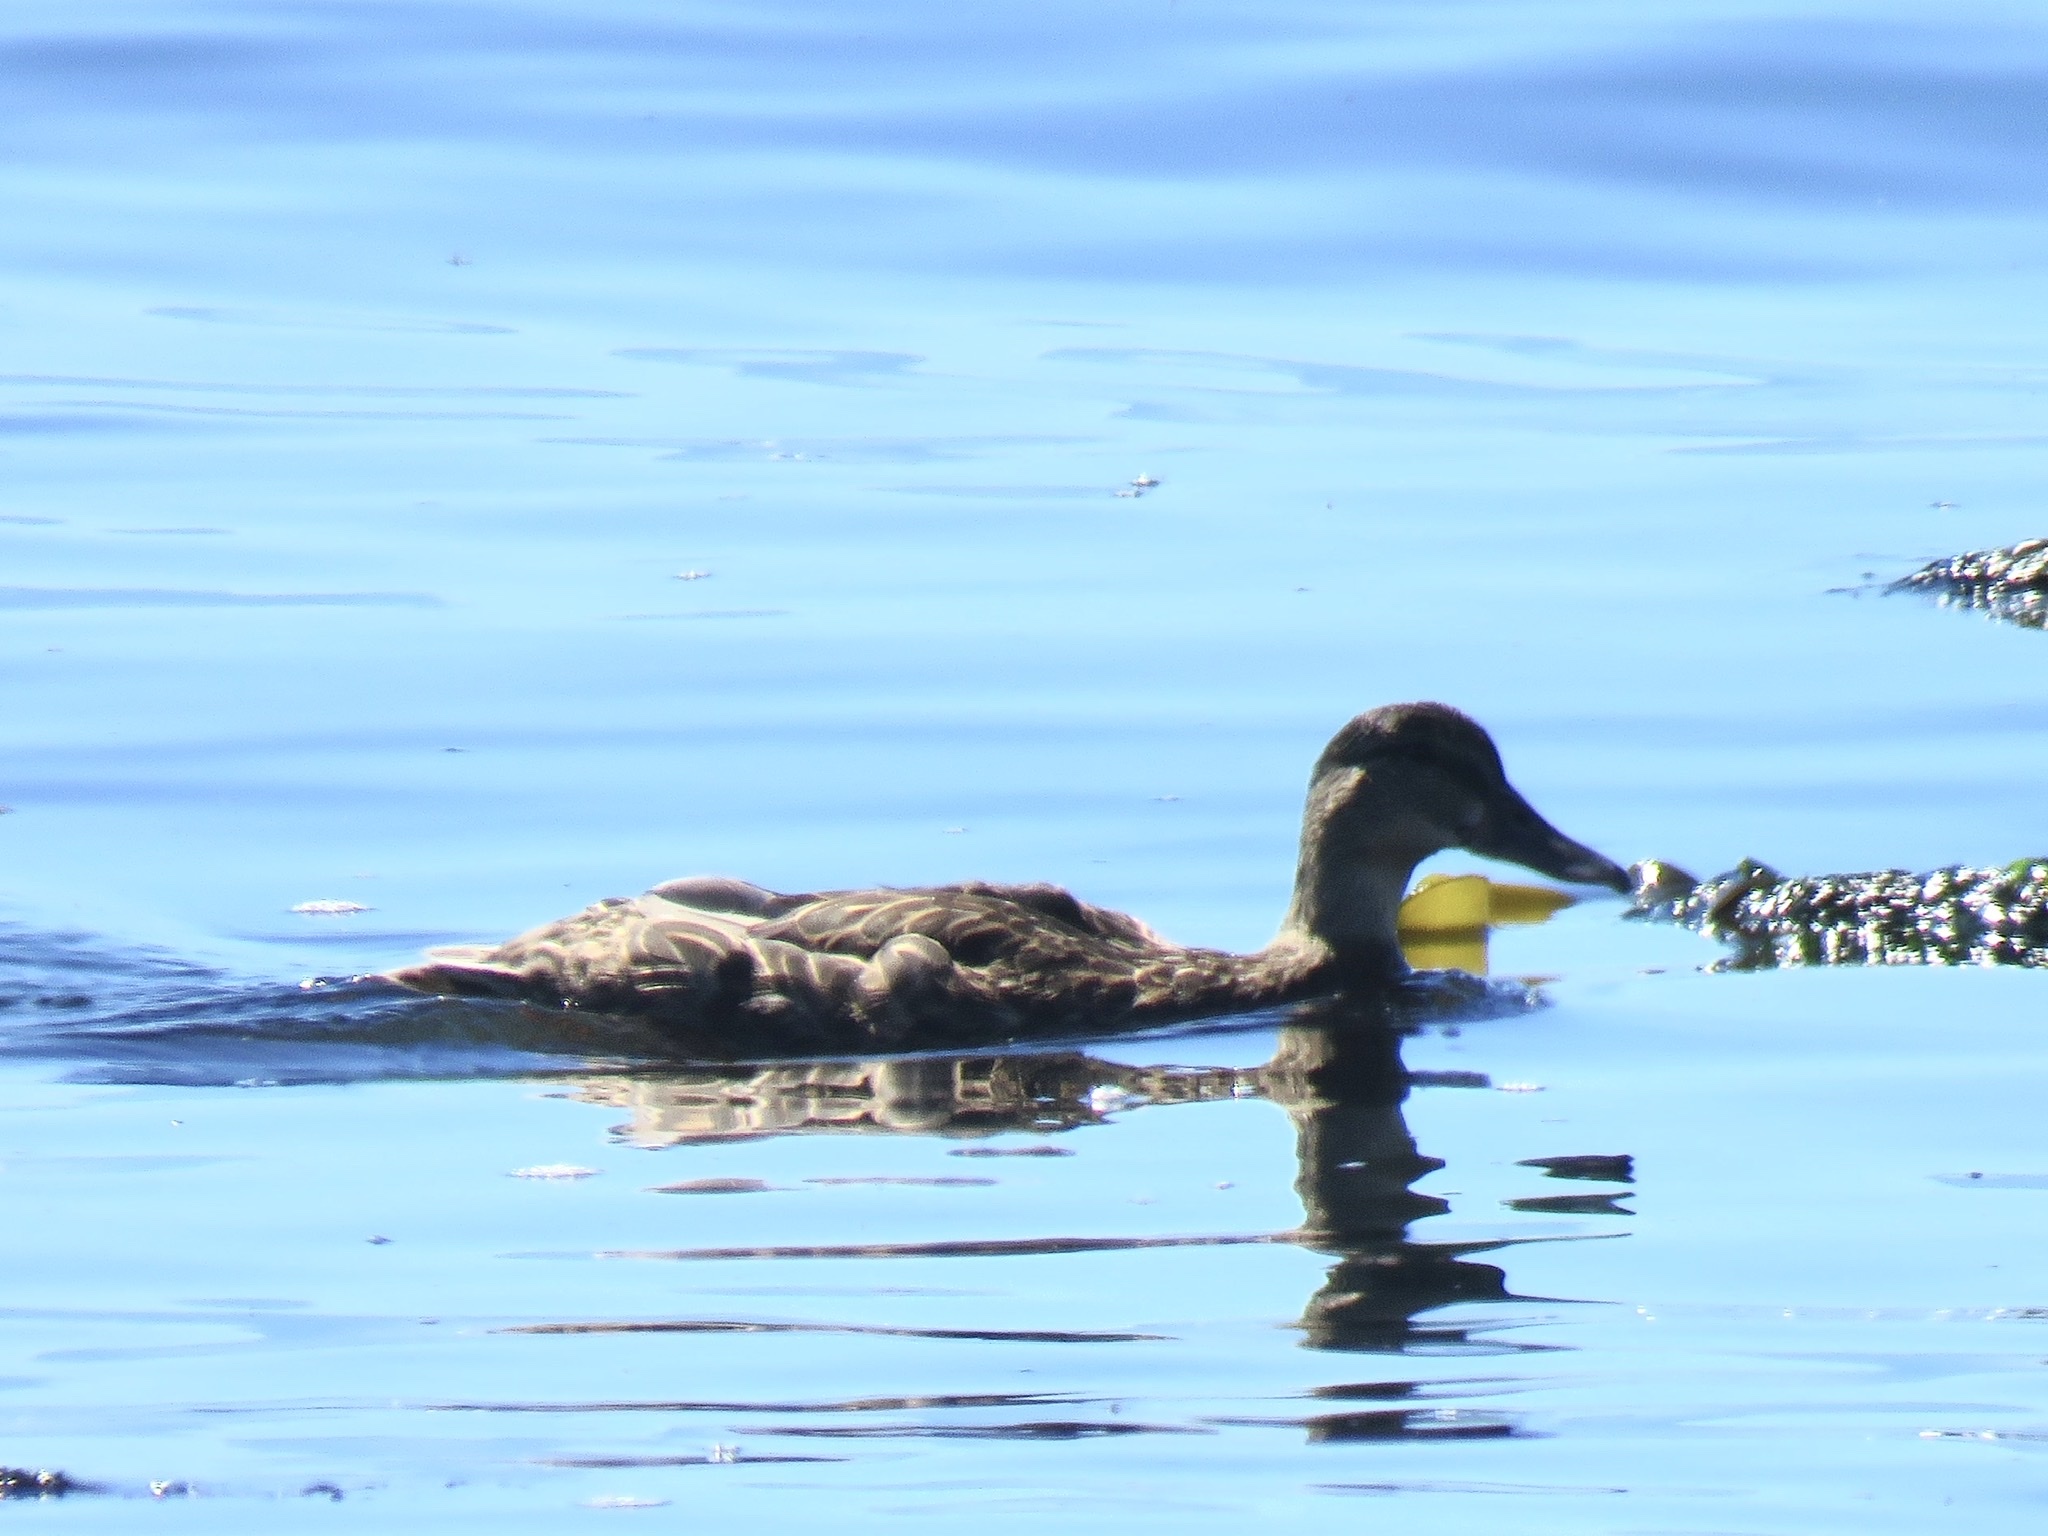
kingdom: Animalia
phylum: Chordata
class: Aves
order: Anseriformes
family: Anatidae
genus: Anas
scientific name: Anas platyrhynchos
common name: Mallard
